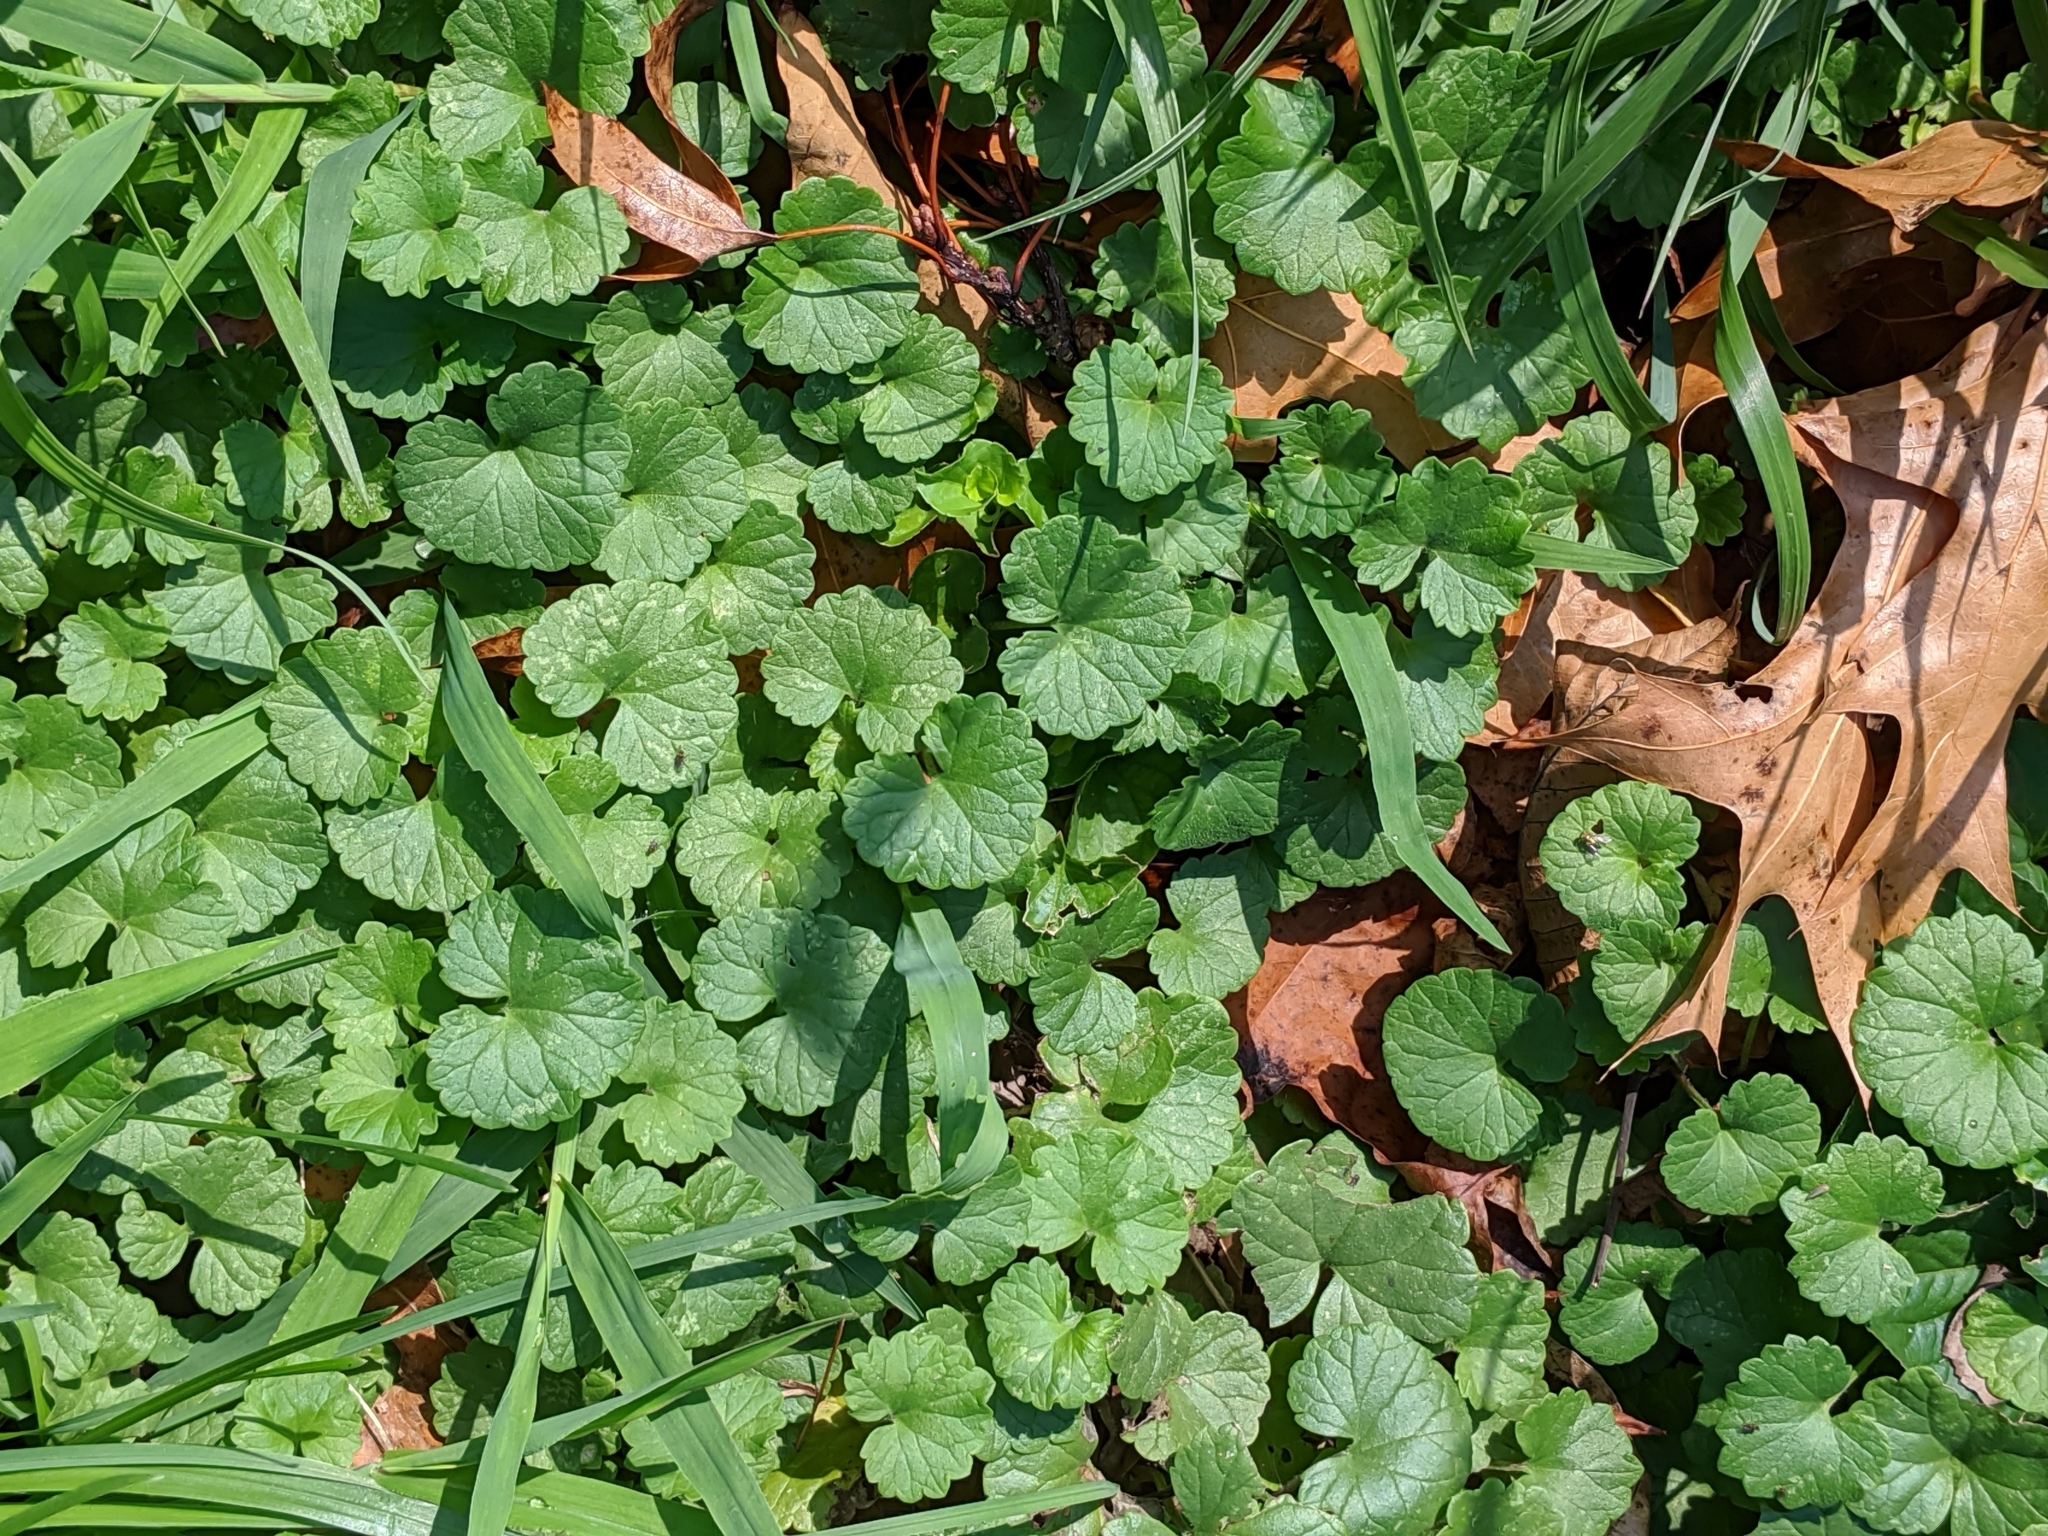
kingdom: Plantae
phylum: Tracheophyta
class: Magnoliopsida
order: Lamiales
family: Lamiaceae
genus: Glechoma
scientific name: Glechoma hederacea
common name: Ground ivy
